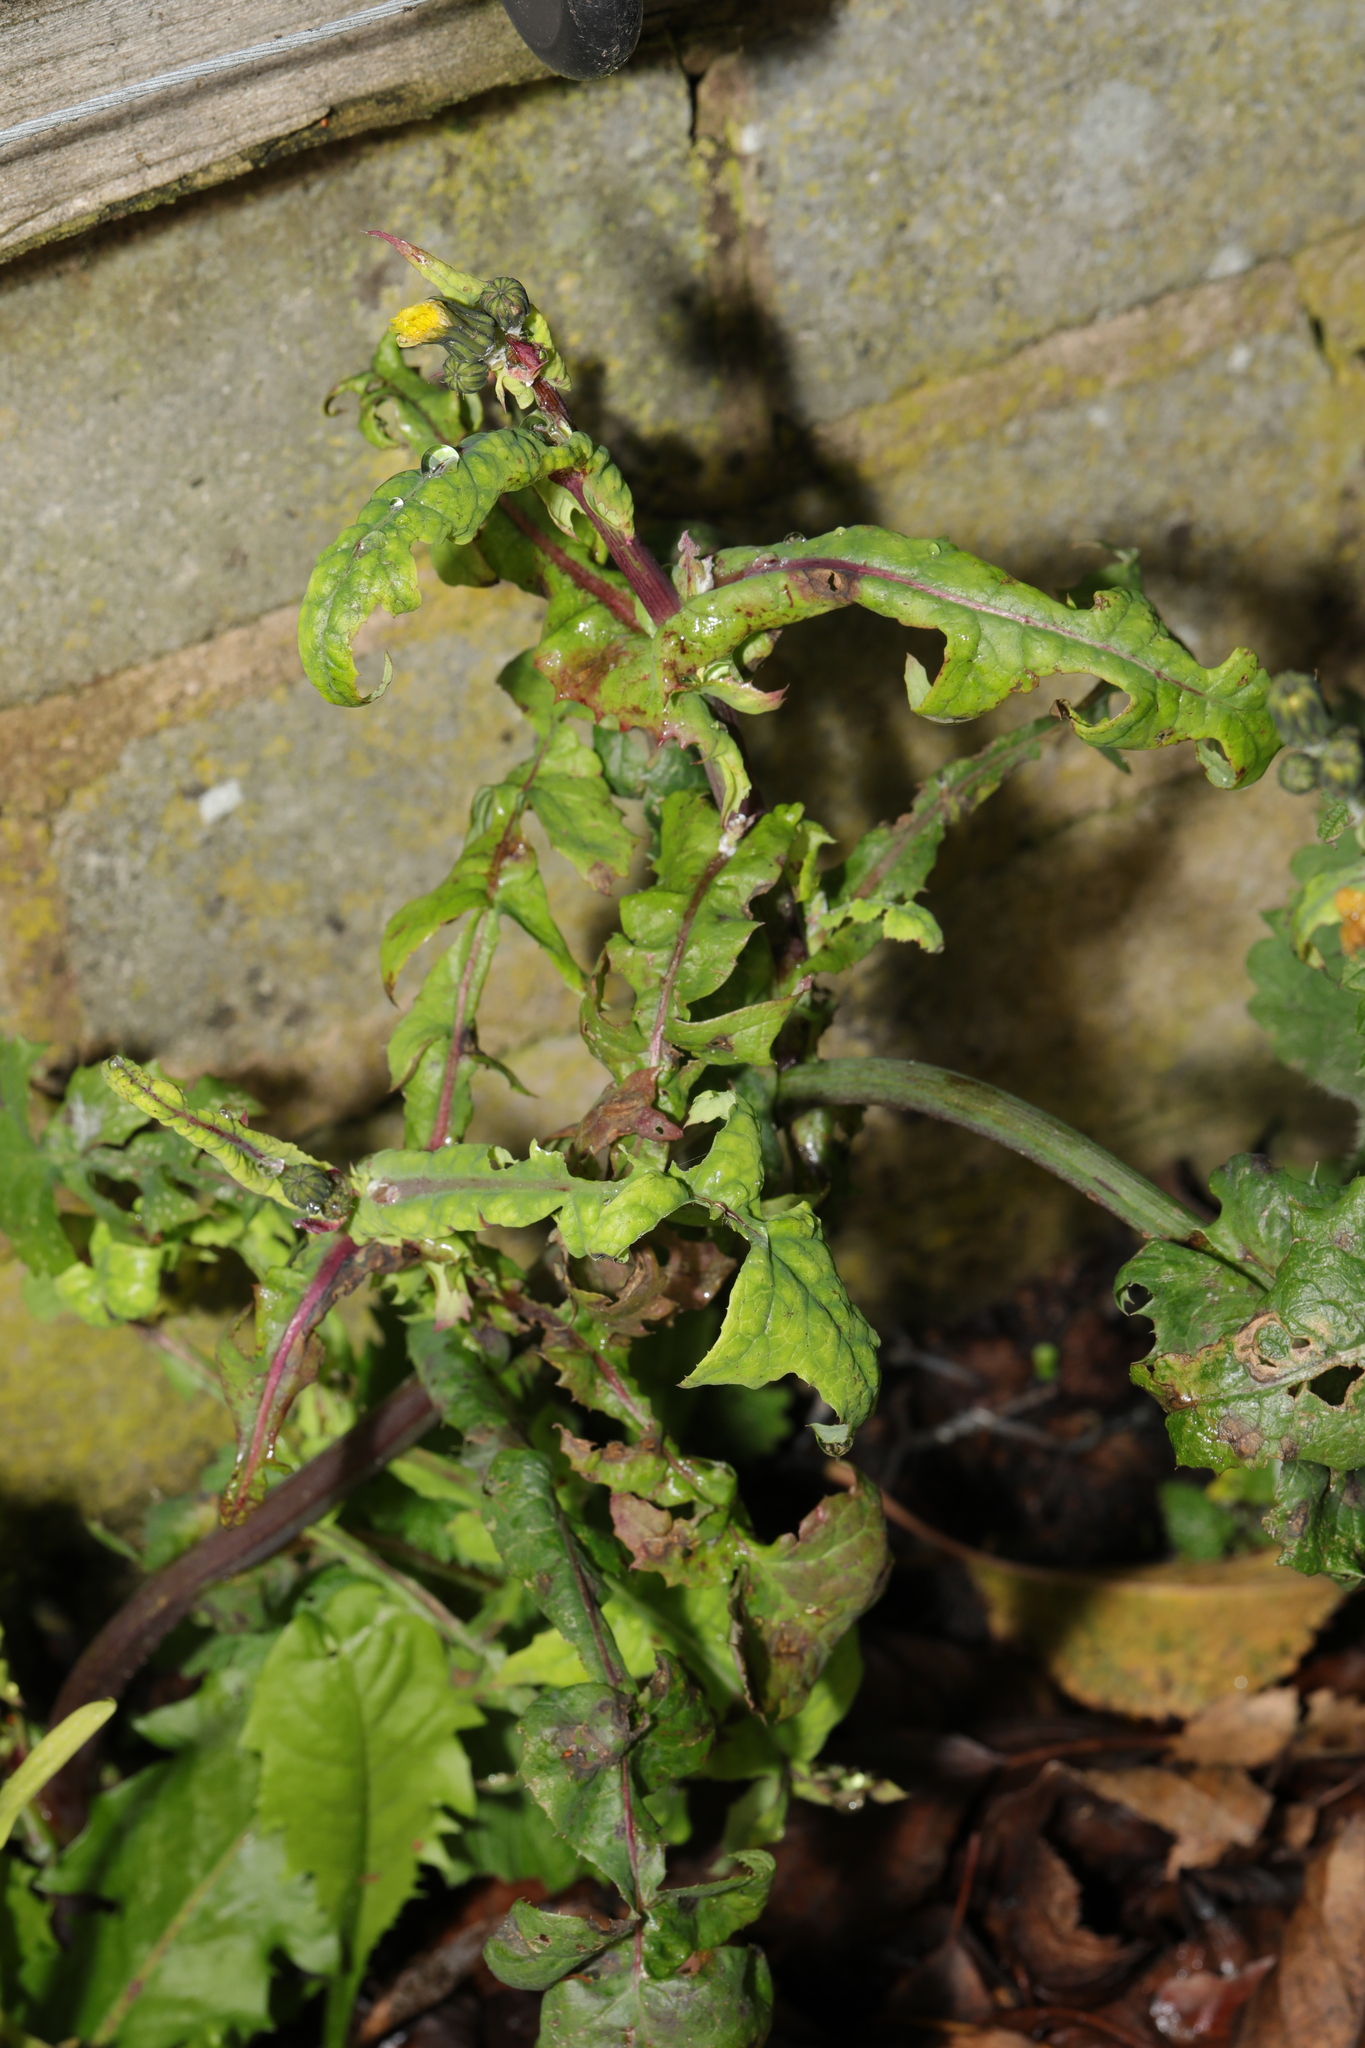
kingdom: Plantae
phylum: Tracheophyta
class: Magnoliopsida
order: Asterales
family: Asteraceae
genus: Sonchus
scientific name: Sonchus oleraceus
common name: Common sowthistle
